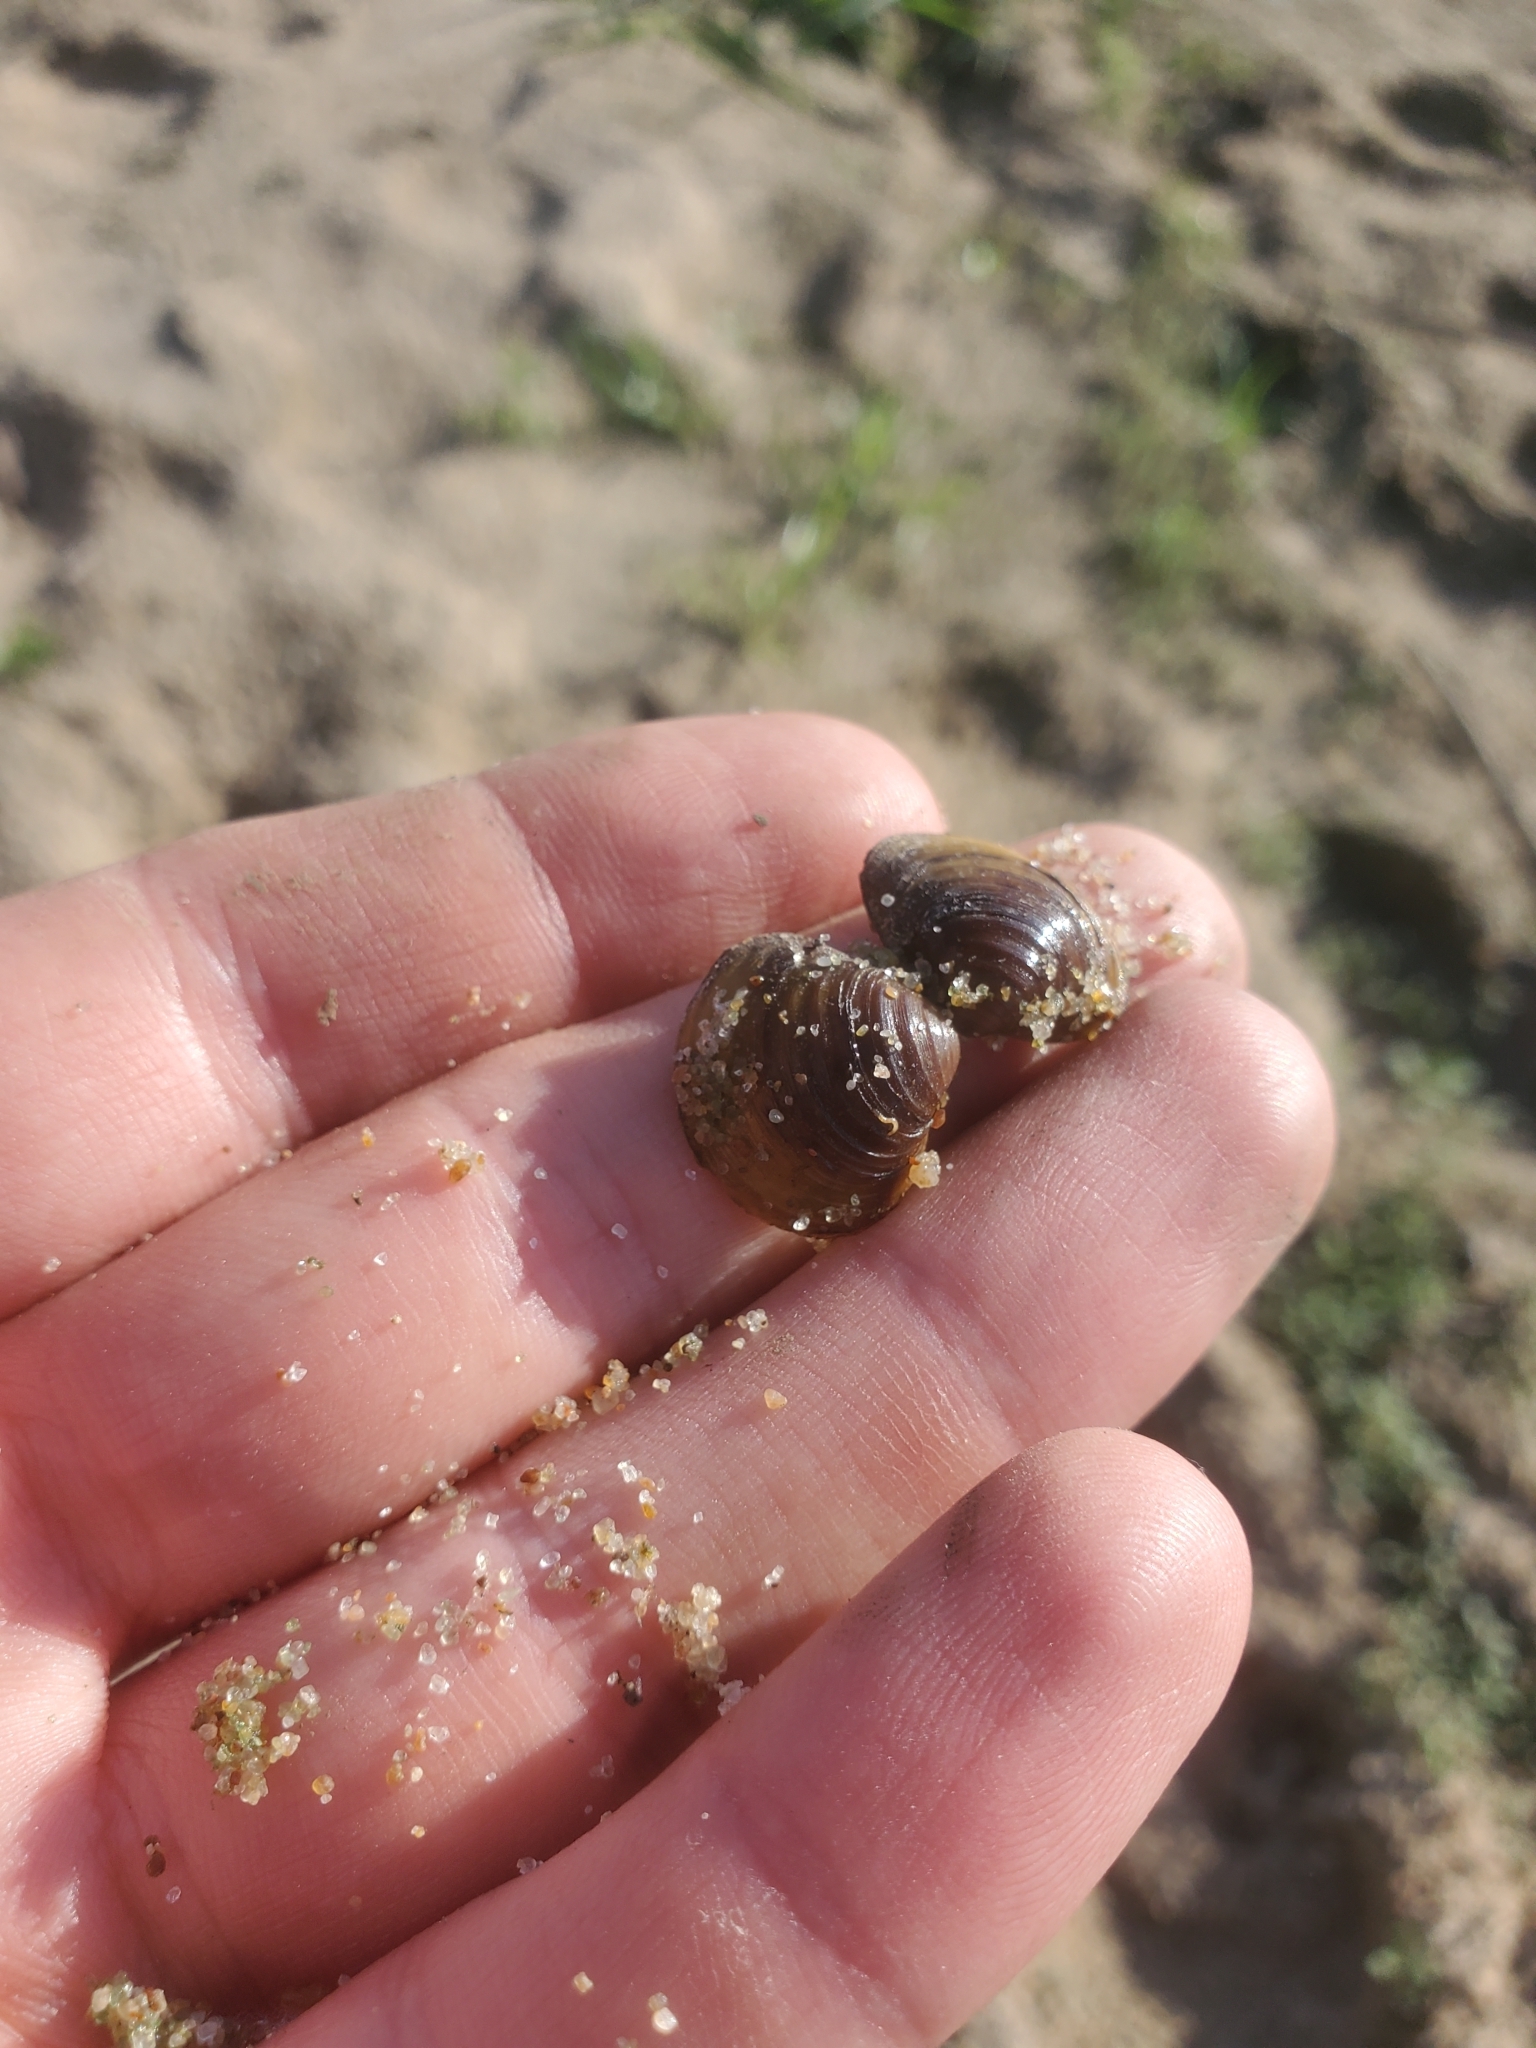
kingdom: Animalia
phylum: Mollusca
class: Bivalvia
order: Venerida
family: Cyrenidae
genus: Corbicula
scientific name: Corbicula fluminea
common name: Asian clam
